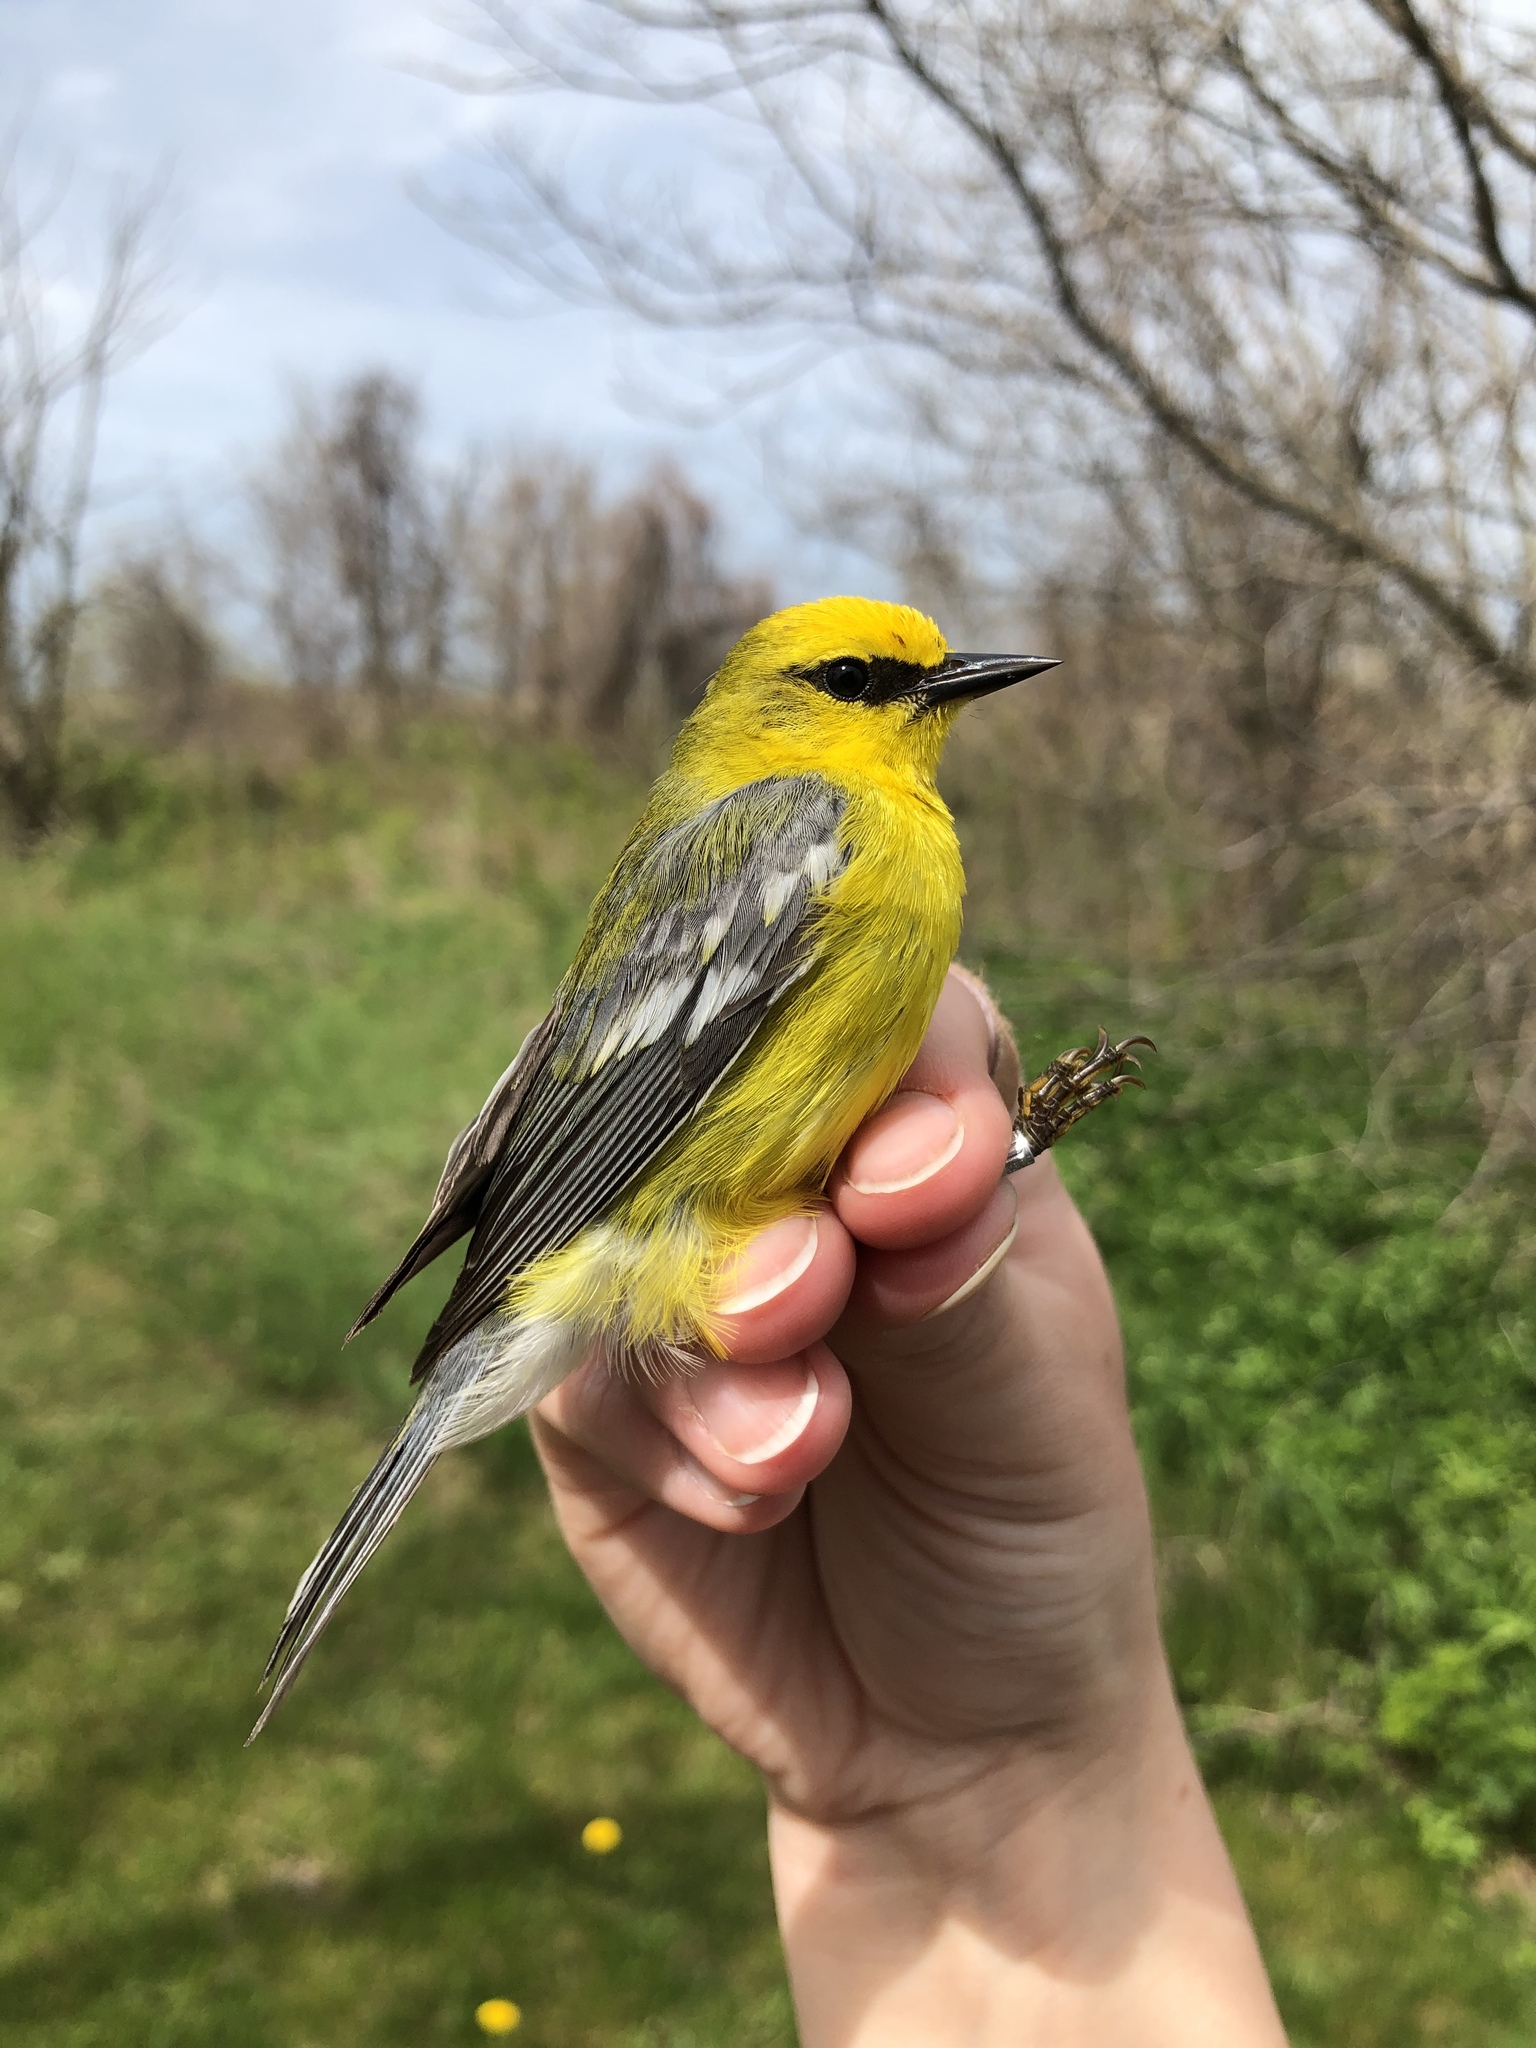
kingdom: Animalia
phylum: Chordata
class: Aves
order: Passeriformes
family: Parulidae
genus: Vermivora
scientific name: Vermivora cyanoptera
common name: Blue-winged warbler
